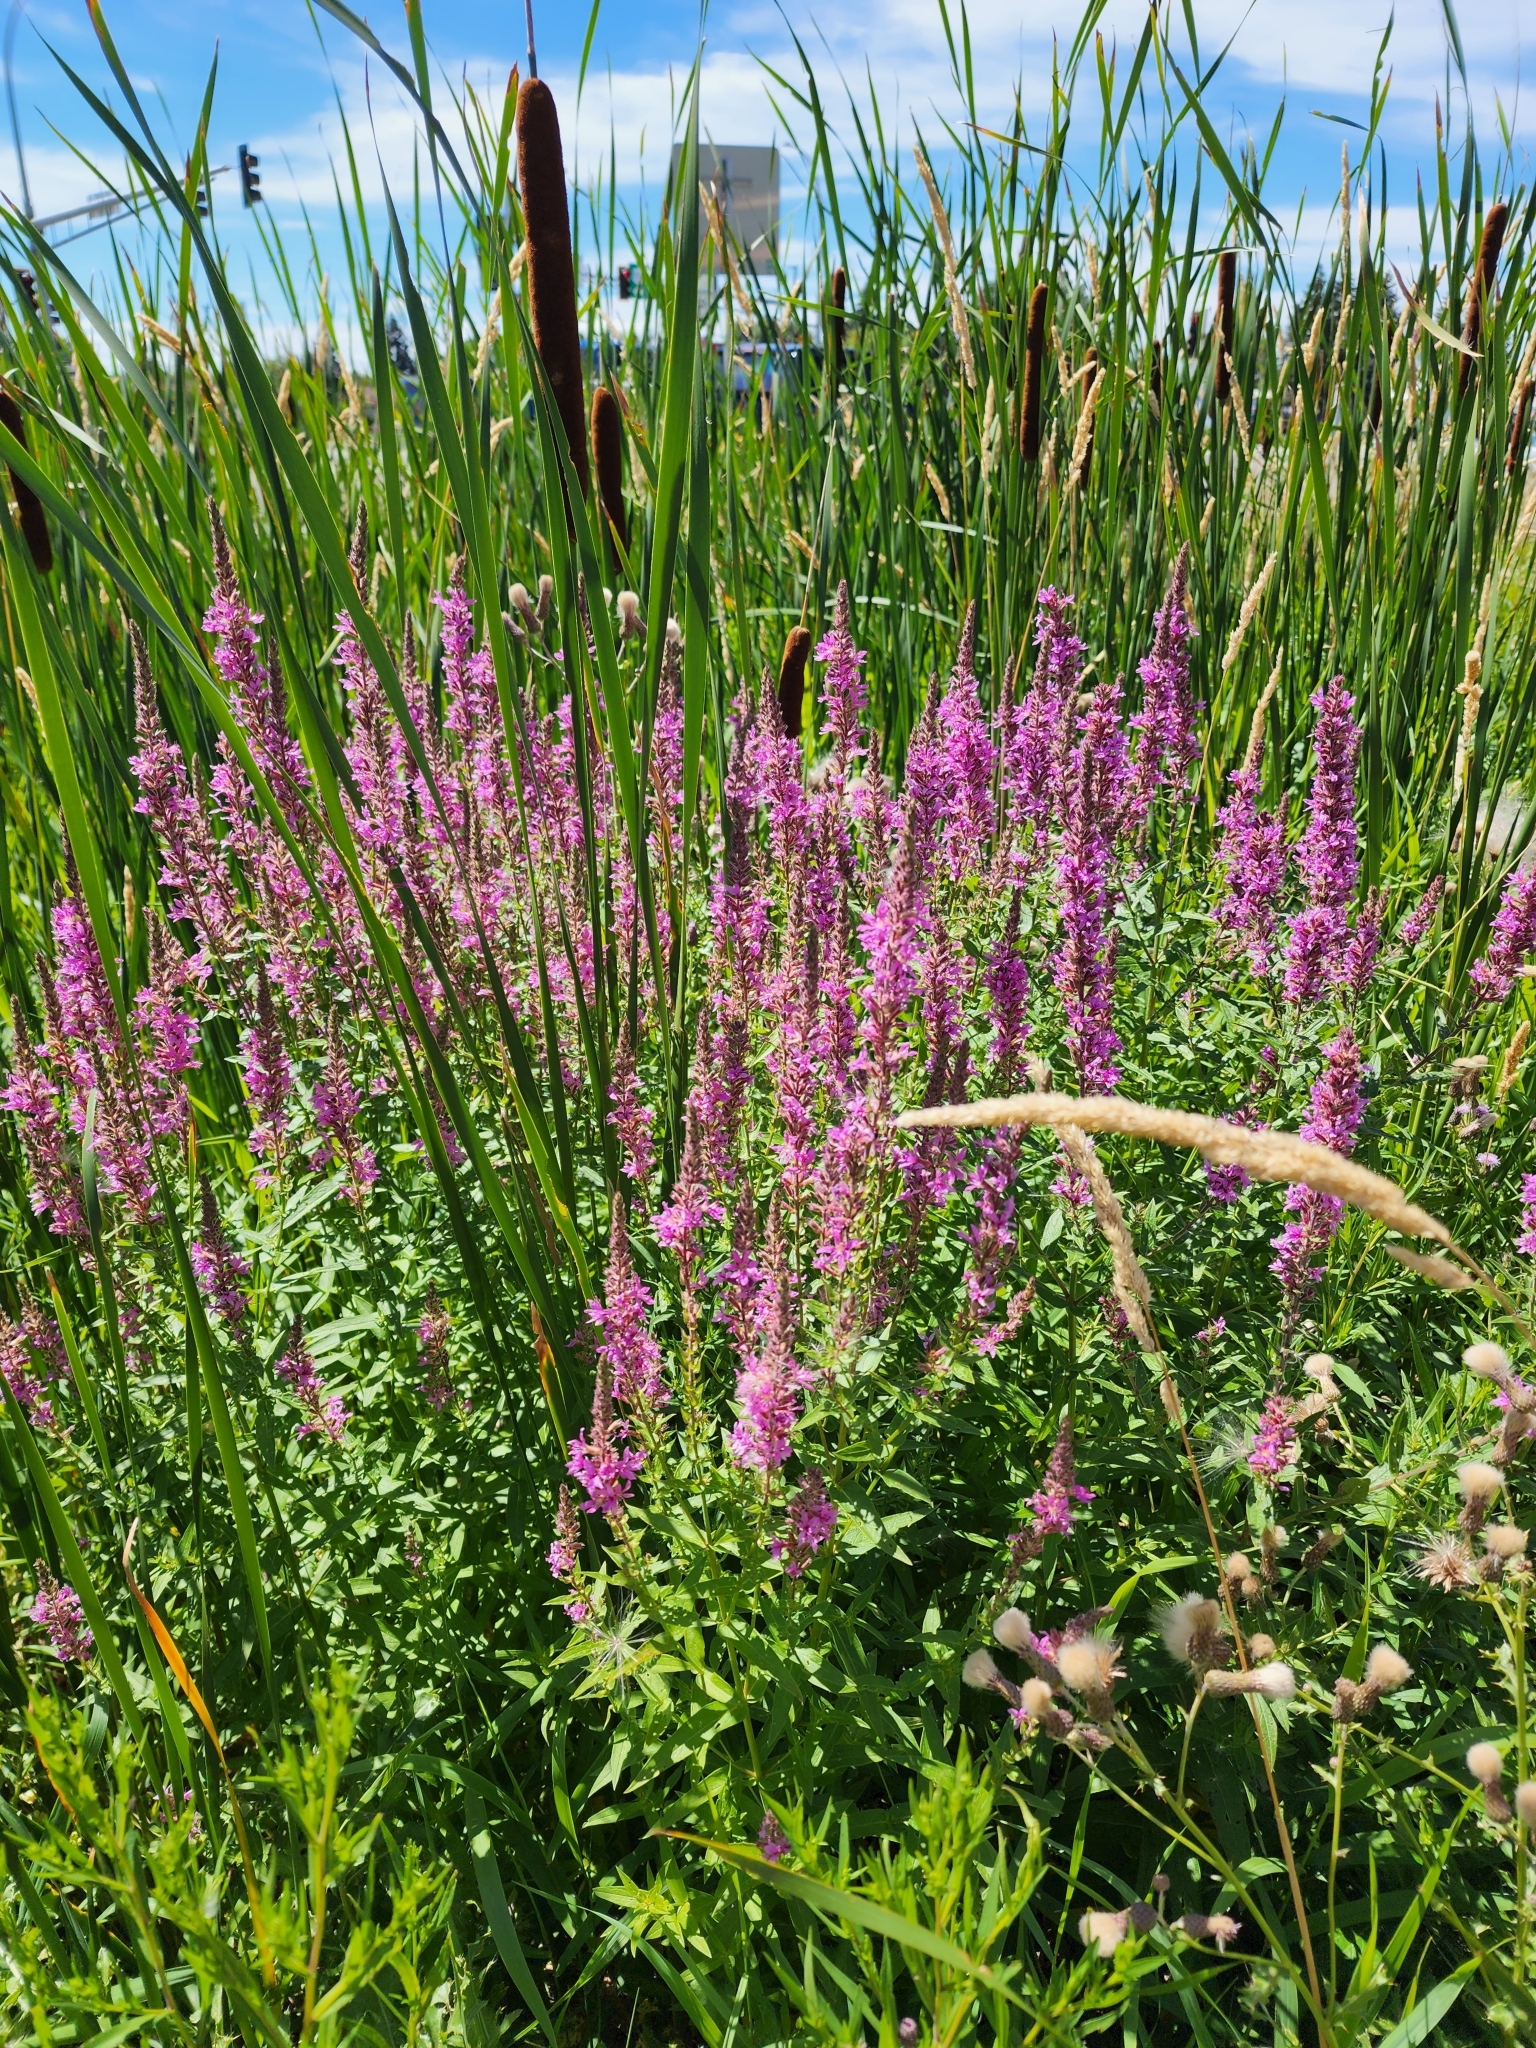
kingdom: Plantae
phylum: Tracheophyta
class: Magnoliopsida
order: Myrtales
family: Lythraceae
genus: Lythrum
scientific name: Lythrum salicaria
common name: Purple loosestrife
